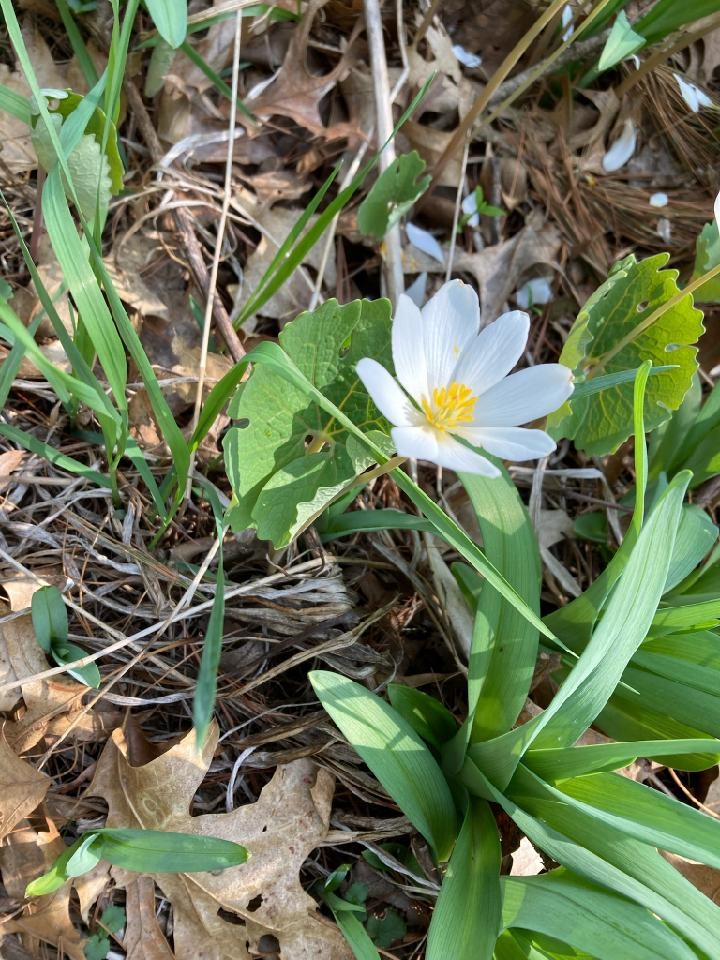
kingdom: Plantae
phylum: Tracheophyta
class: Magnoliopsida
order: Ranunculales
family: Papaveraceae
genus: Sanguinaria
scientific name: Sanguinaria canadensis
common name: Bloodroot
